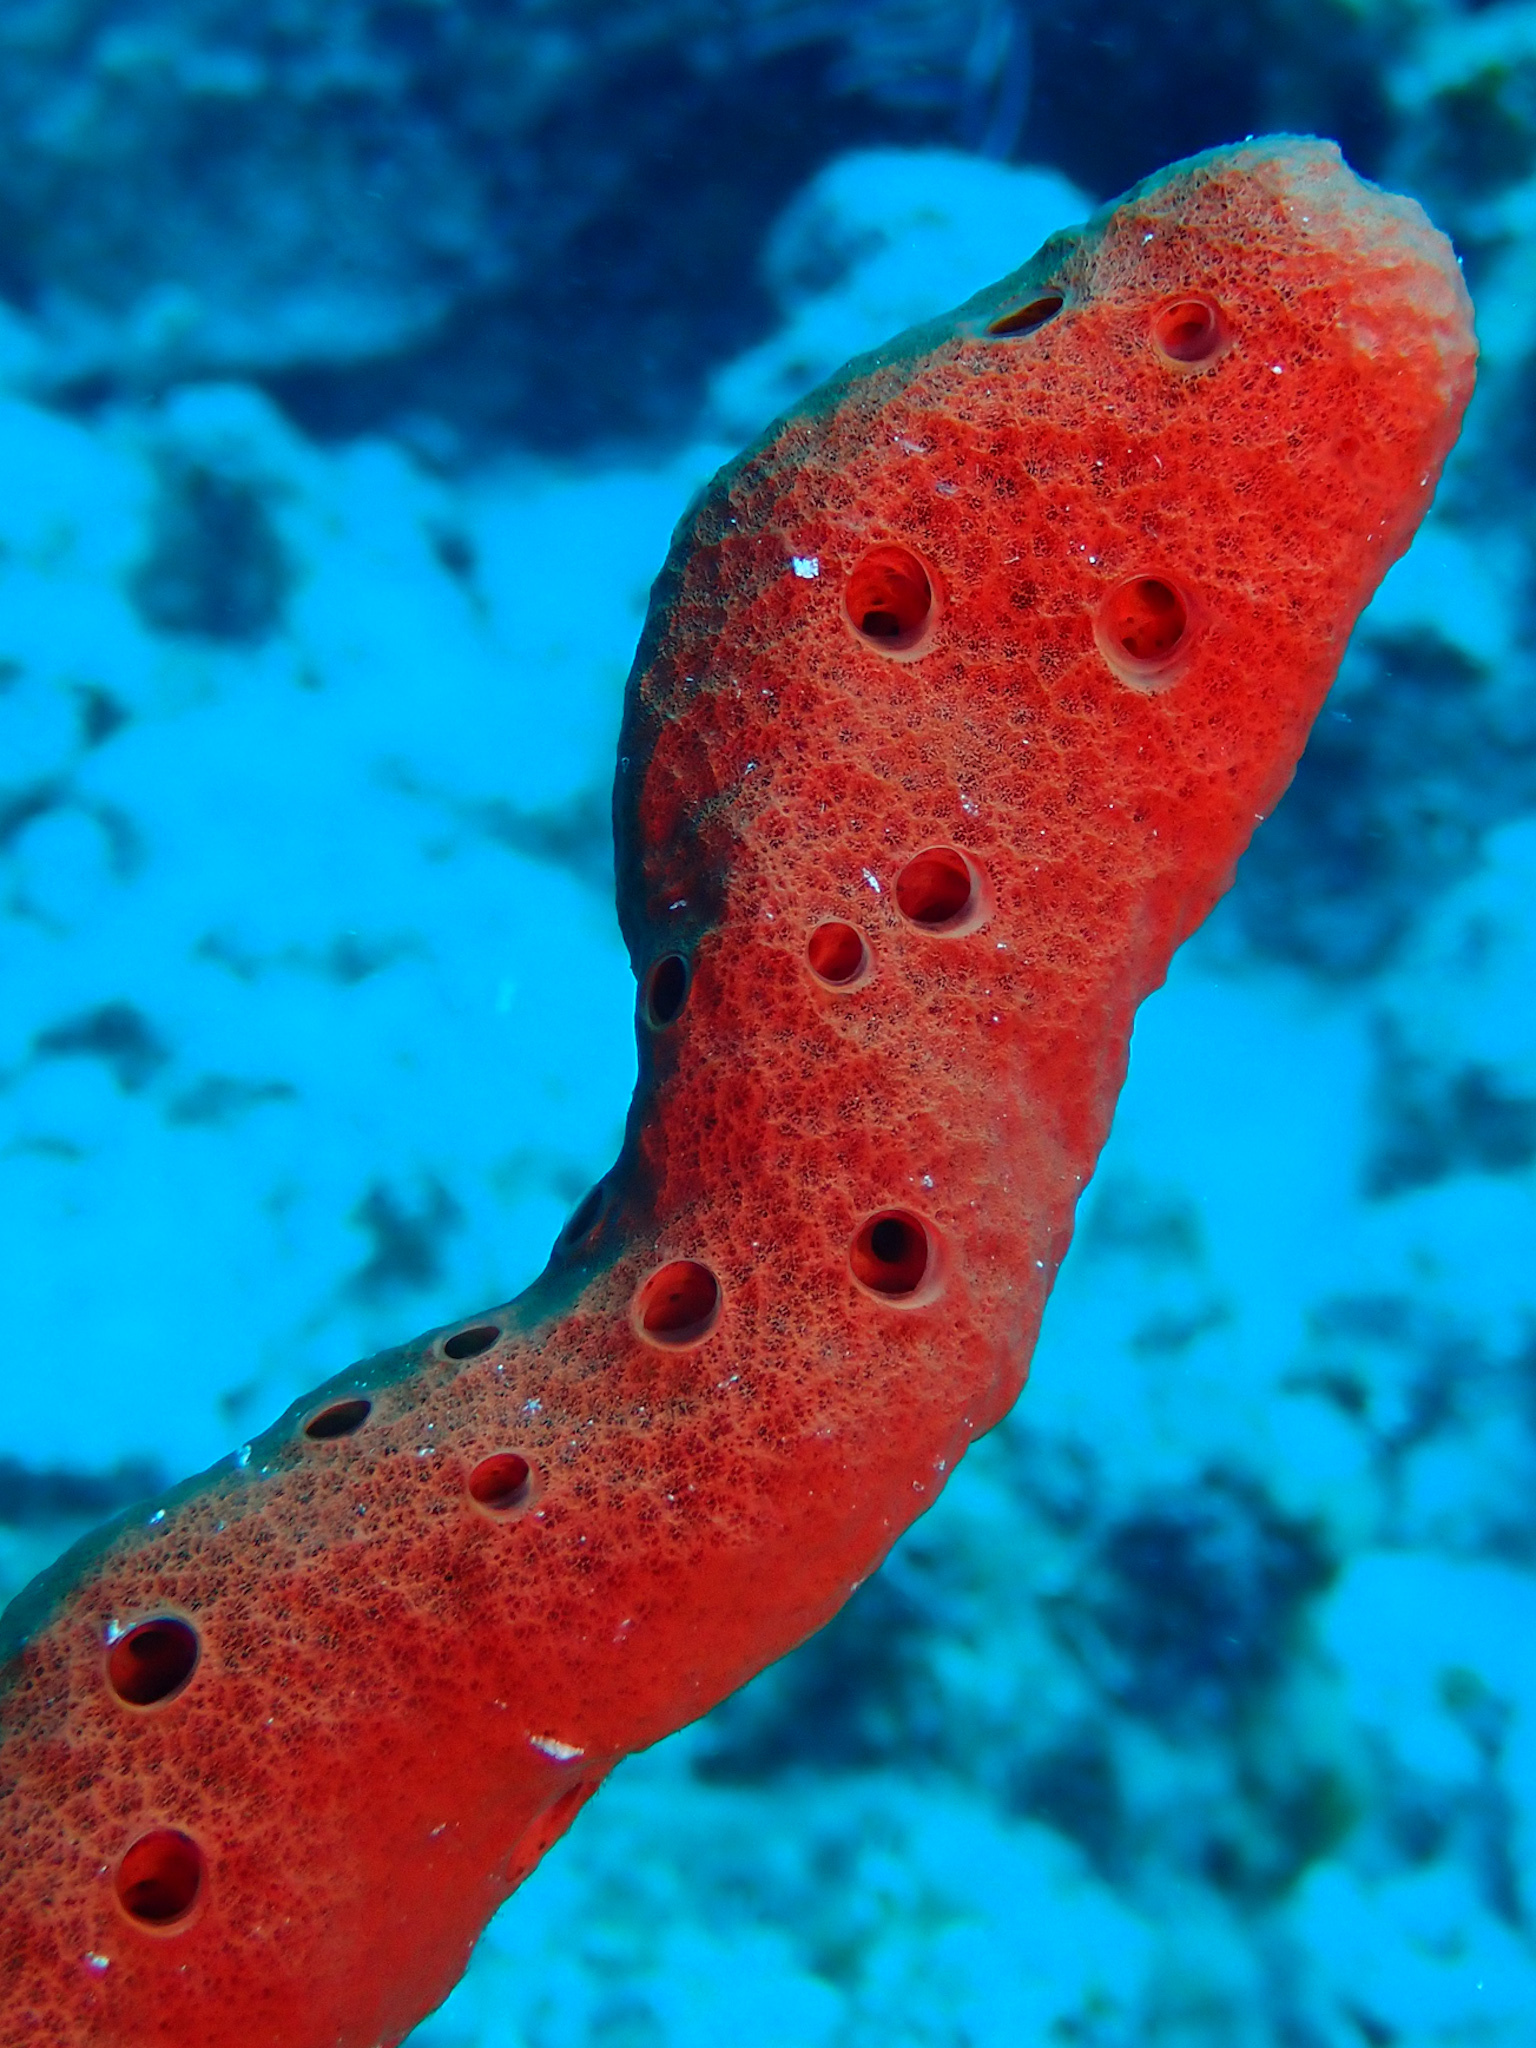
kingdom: Animalia
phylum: Porifera
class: Demospongiae
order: Haplosclerida
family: Niphatidae
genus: Amphimedon
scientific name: Amphimedon compressa
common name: Red sponge
